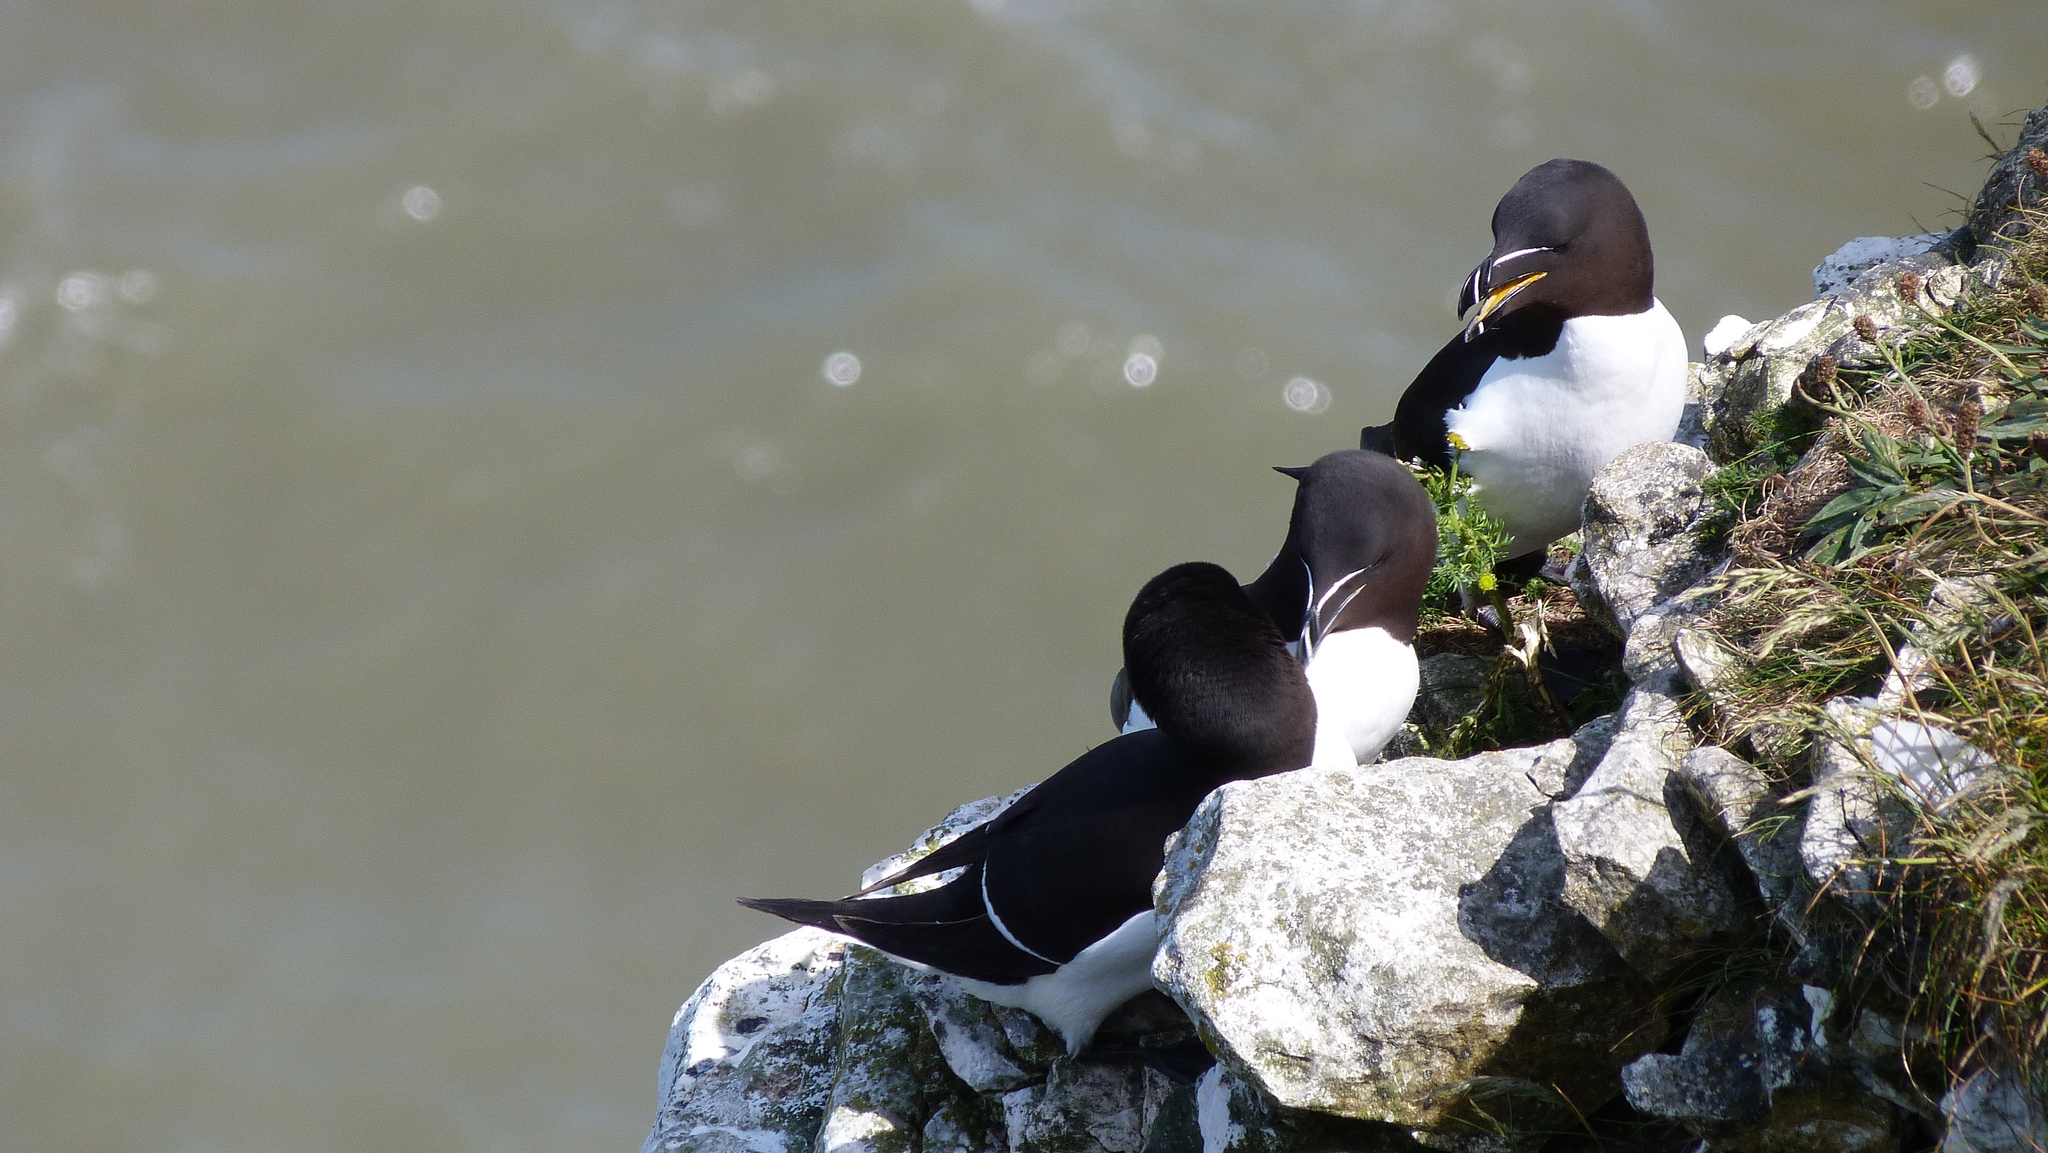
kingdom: Animalia
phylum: Chordata
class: Aves
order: Charadriiformes
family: Alcidae
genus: Alca
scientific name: Alca torda
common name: Razorbill
